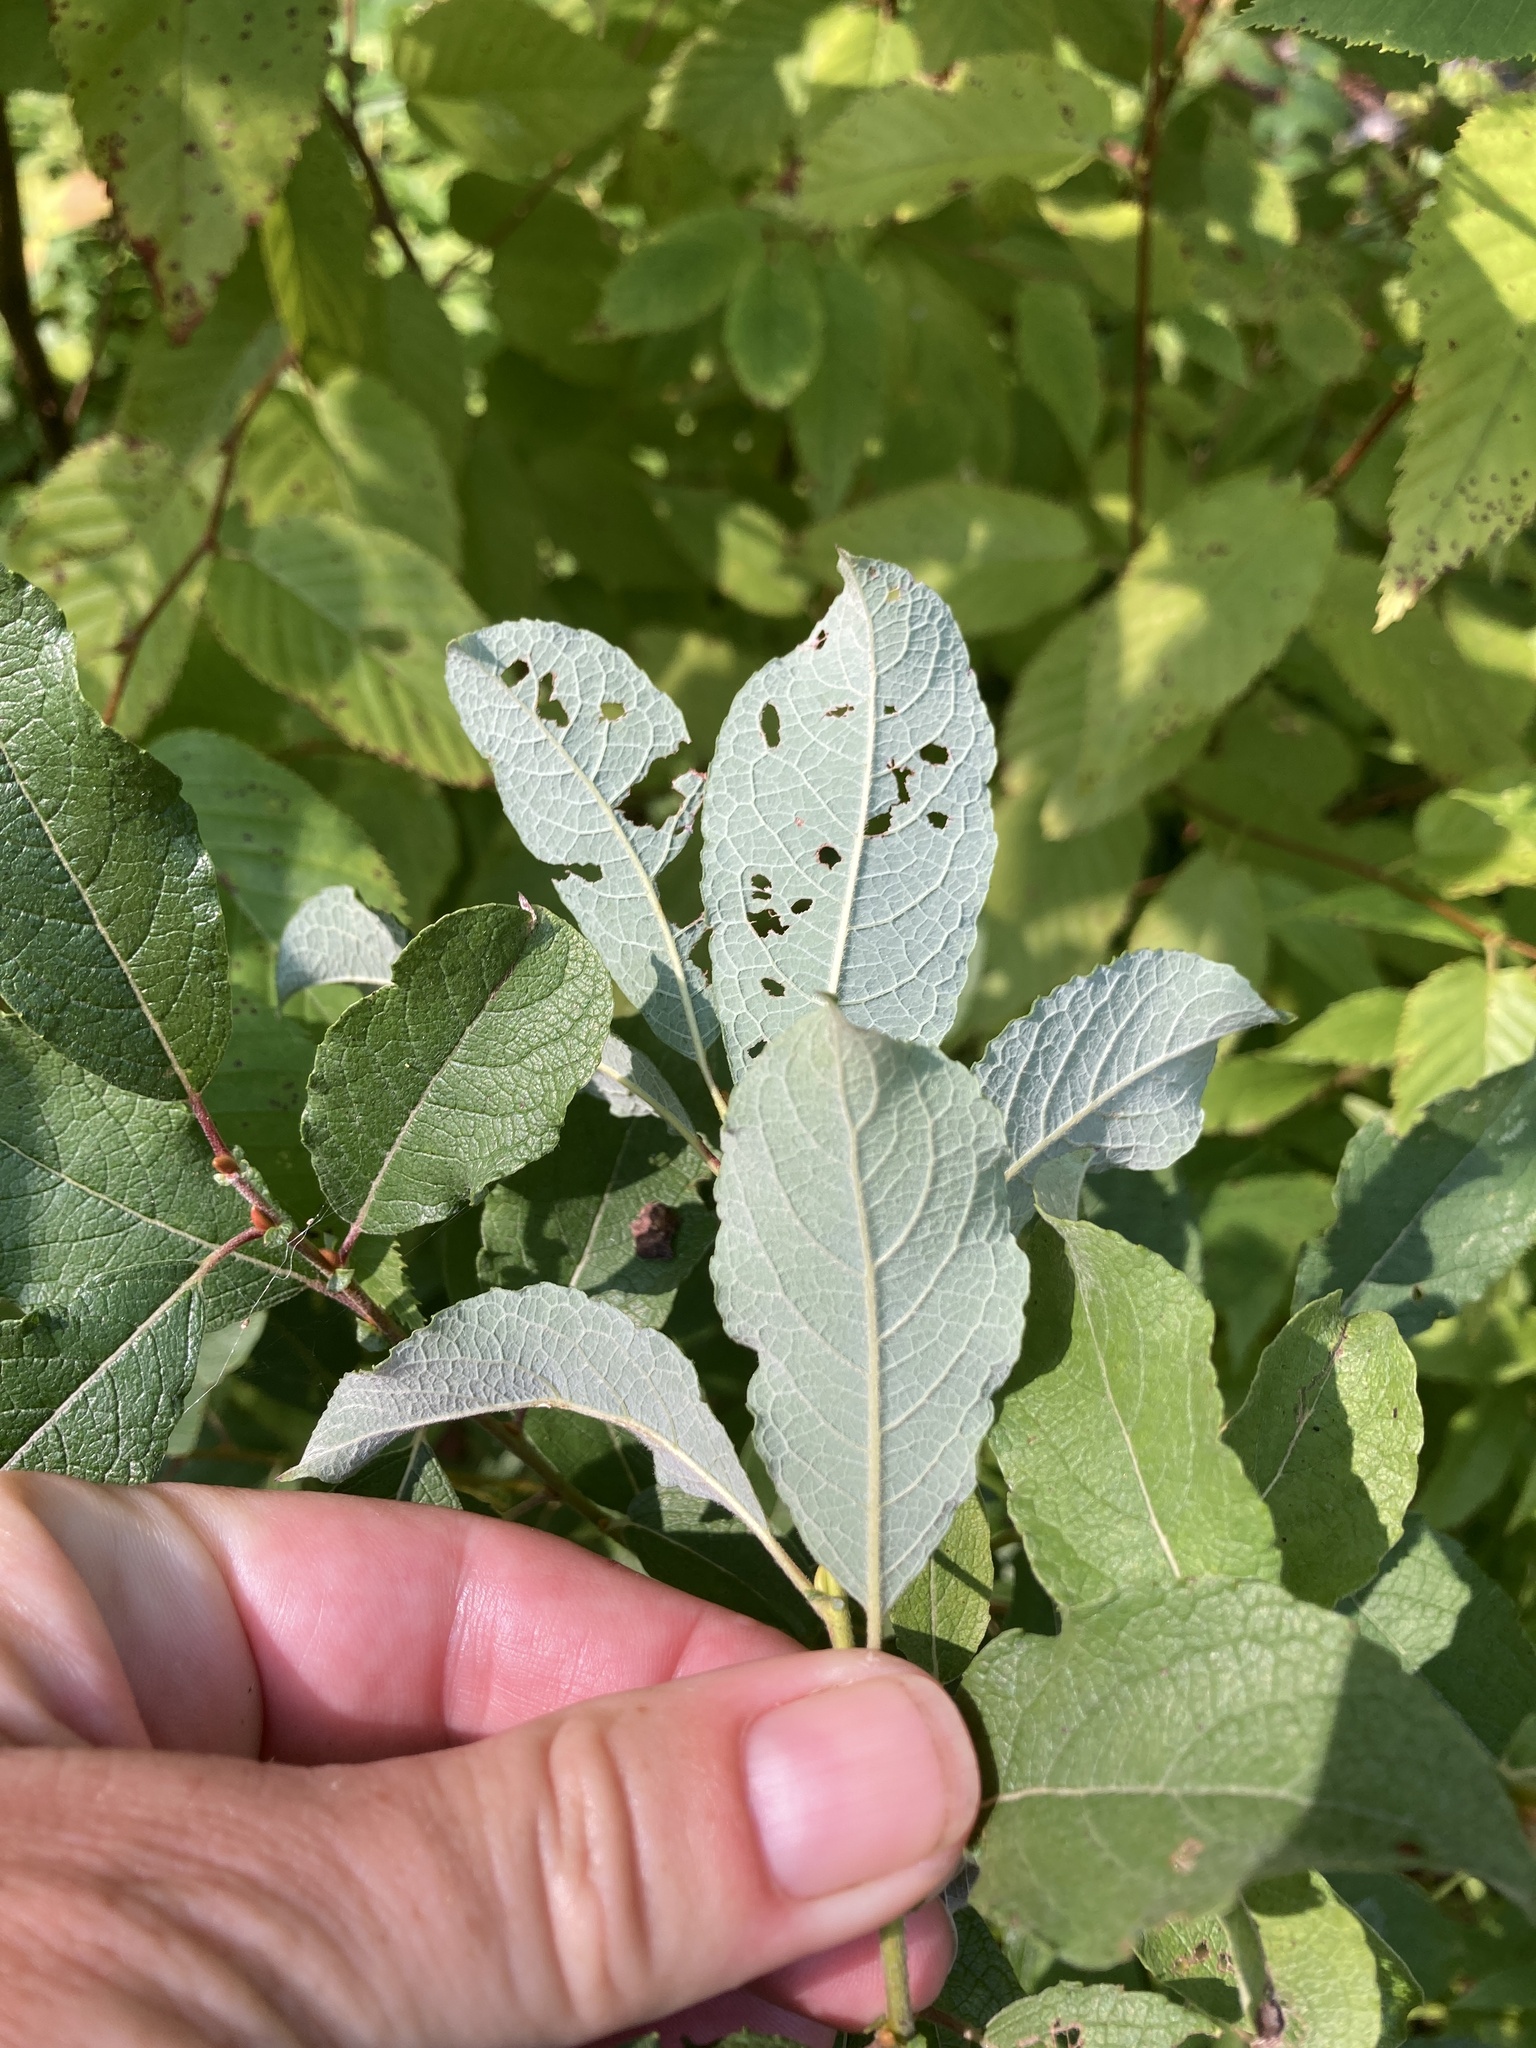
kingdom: Plantae
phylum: Tracheophyta
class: Magnoliopsida
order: Malpighiales
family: Salicaceae
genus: Salix
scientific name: Salix bebbiana
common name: Bebb's willow
